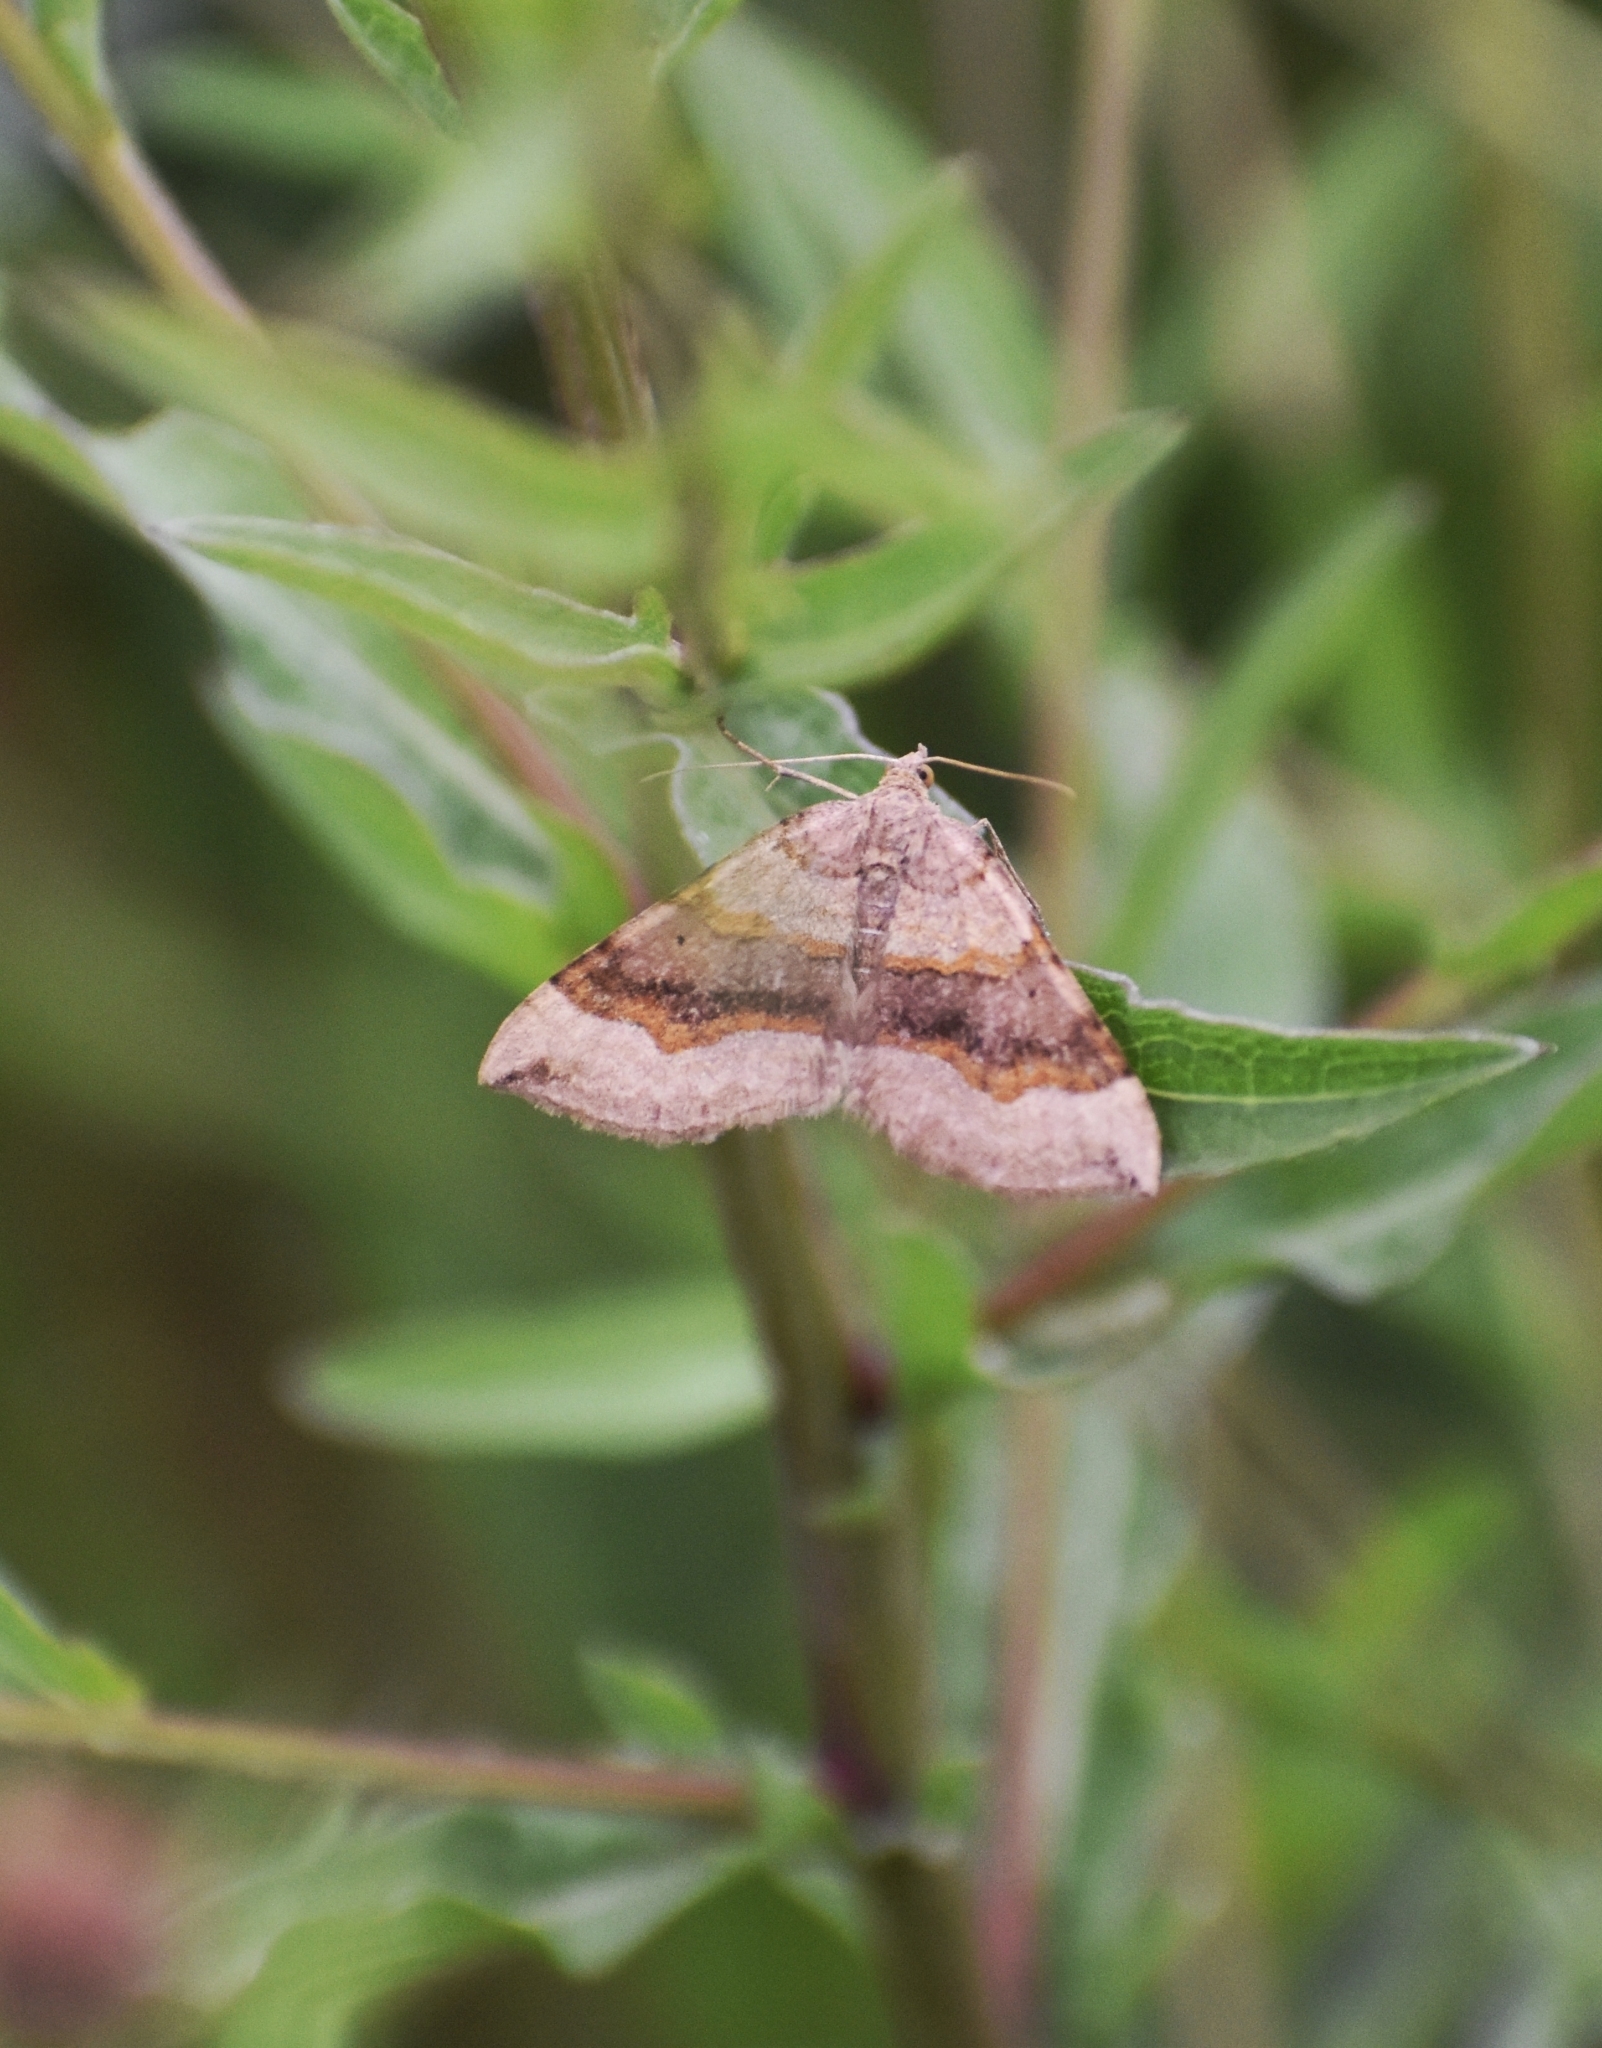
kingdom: Animalia
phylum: Arthropoda
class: Insecta
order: Lepidoptera
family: Geometridae
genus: Scotopteryx
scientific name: Scotopteryx chenopodiata
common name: Shaded broad-bar
